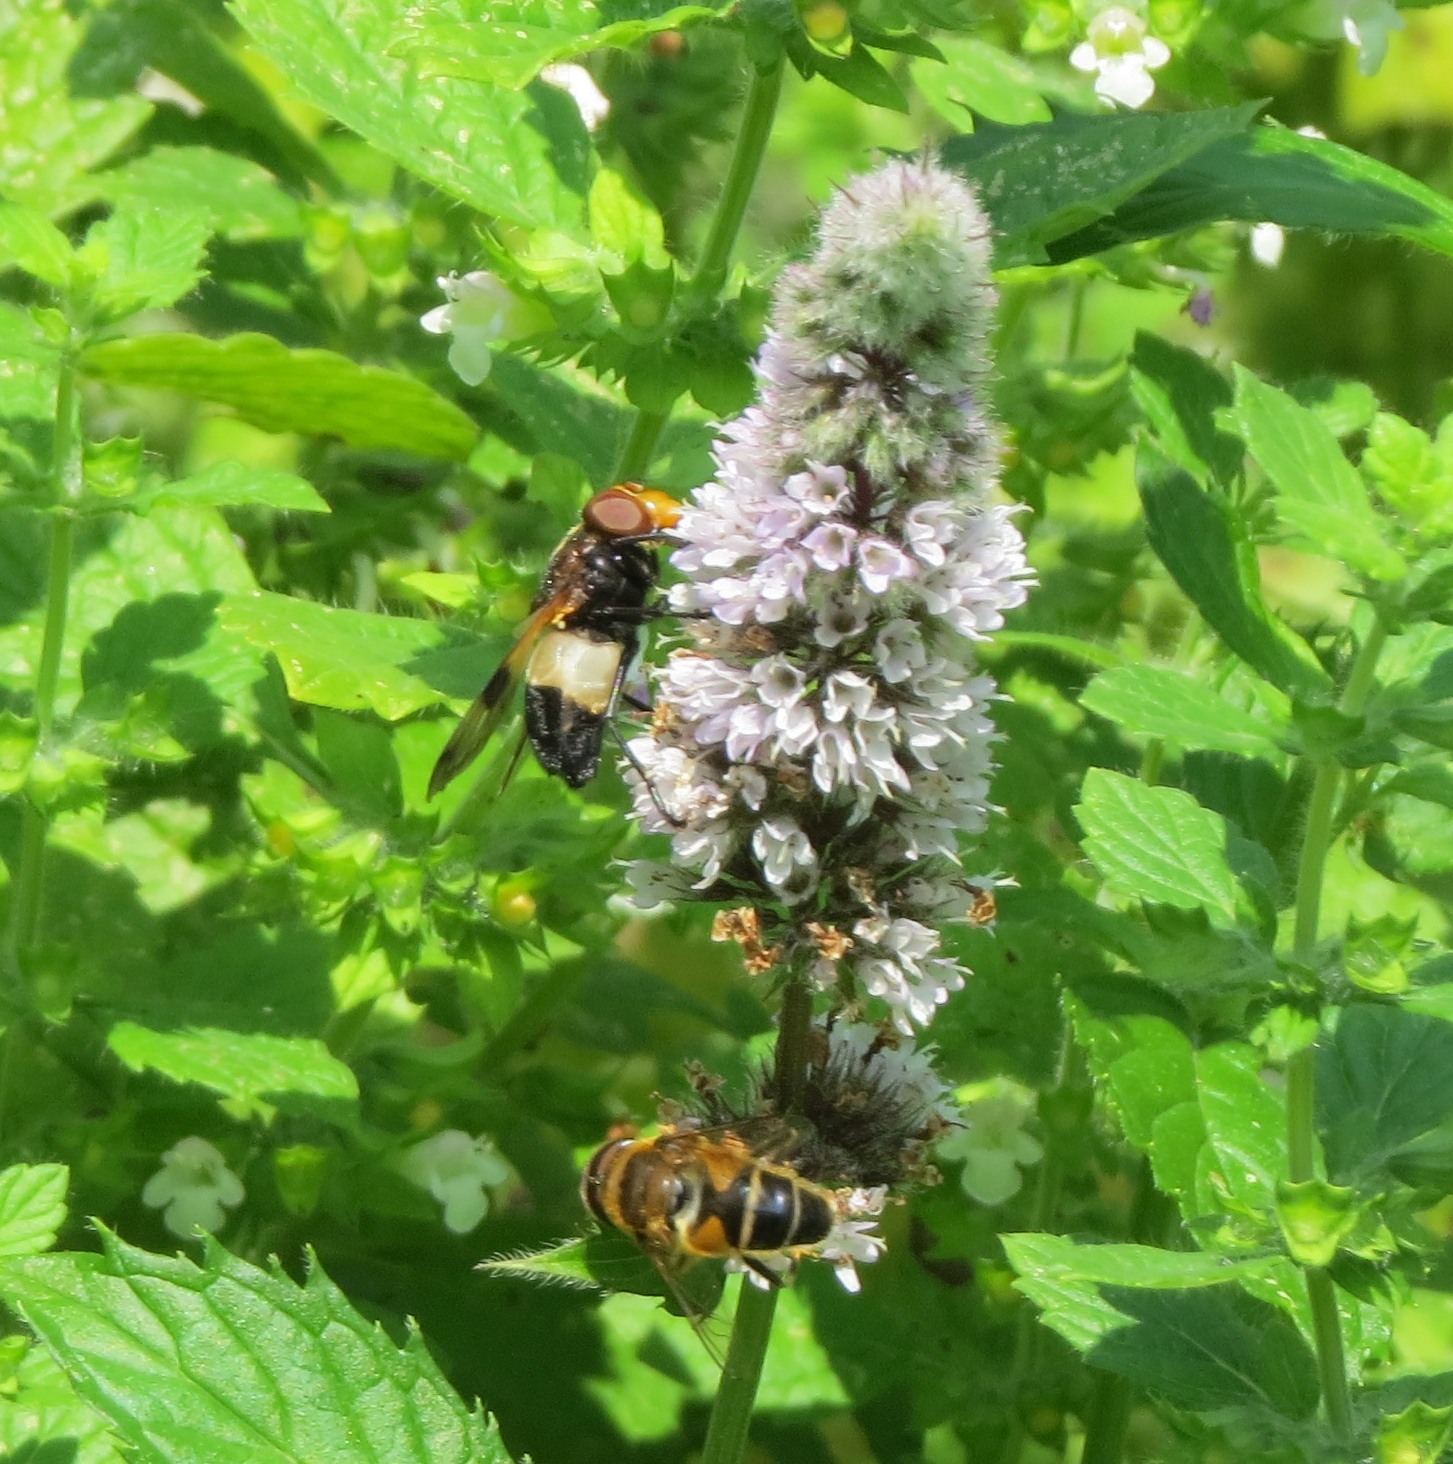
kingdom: Animalia
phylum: Arthropoda
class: Insecta
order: Diptera
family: Syrphidae
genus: Eristalis
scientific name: Eristalis pertinax
